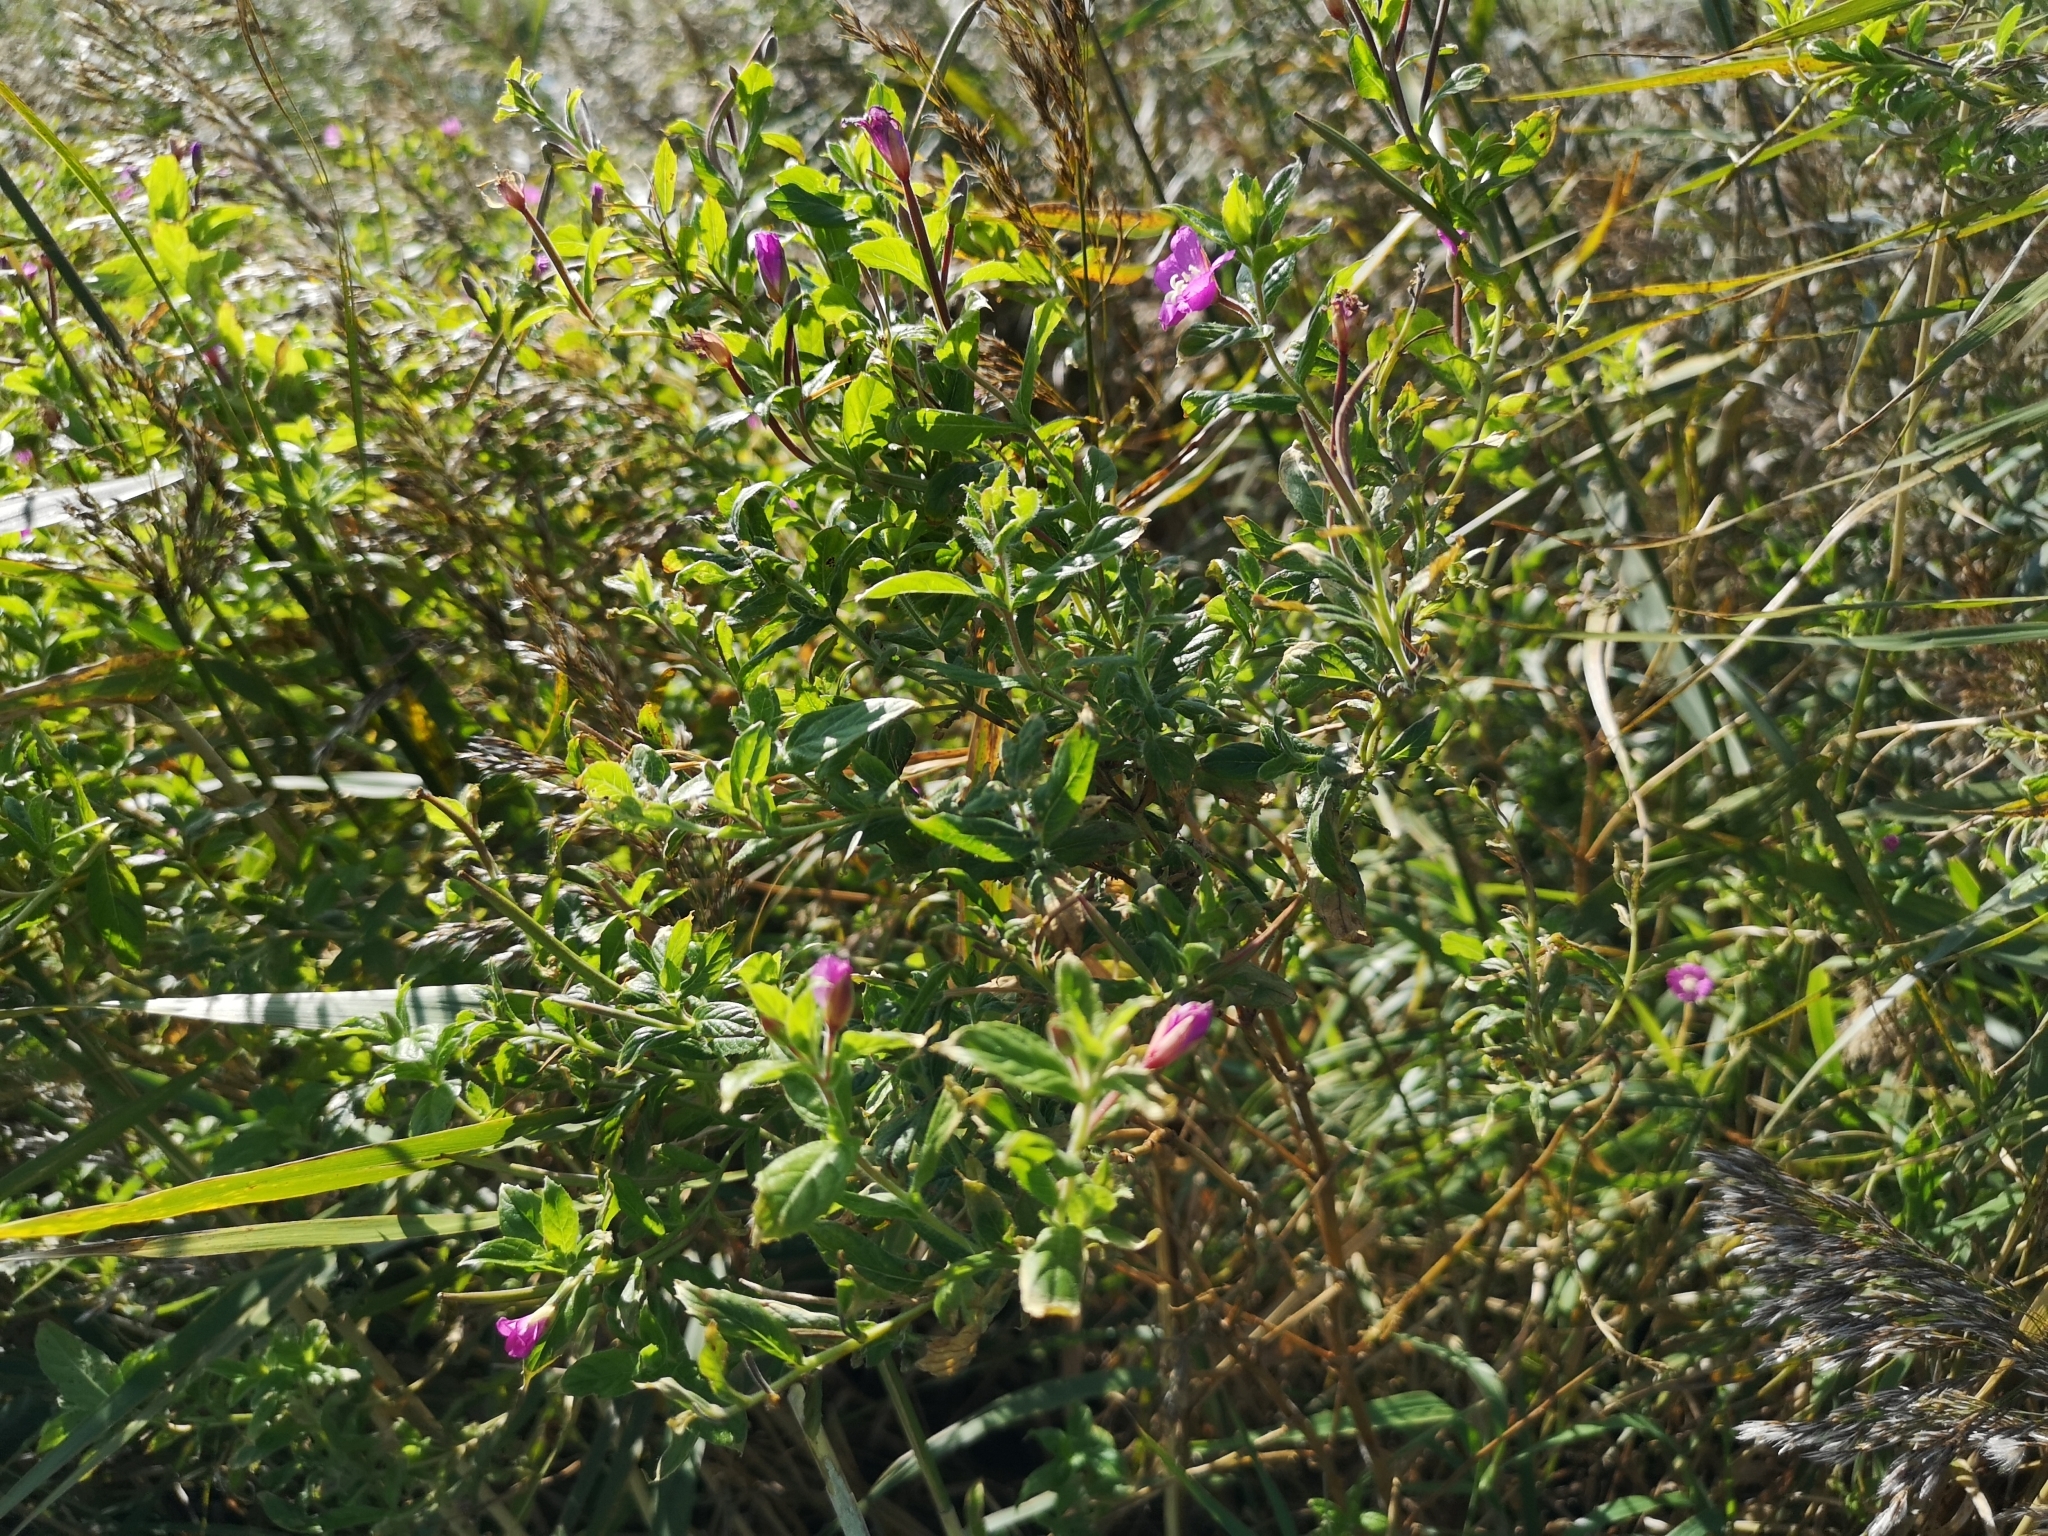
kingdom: Plantae
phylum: Tracheophyta
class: Magnoliopsida
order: Myrtales
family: Onagraceae
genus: Epilobium
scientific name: Epilobium hirsutum
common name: Great willowherb
